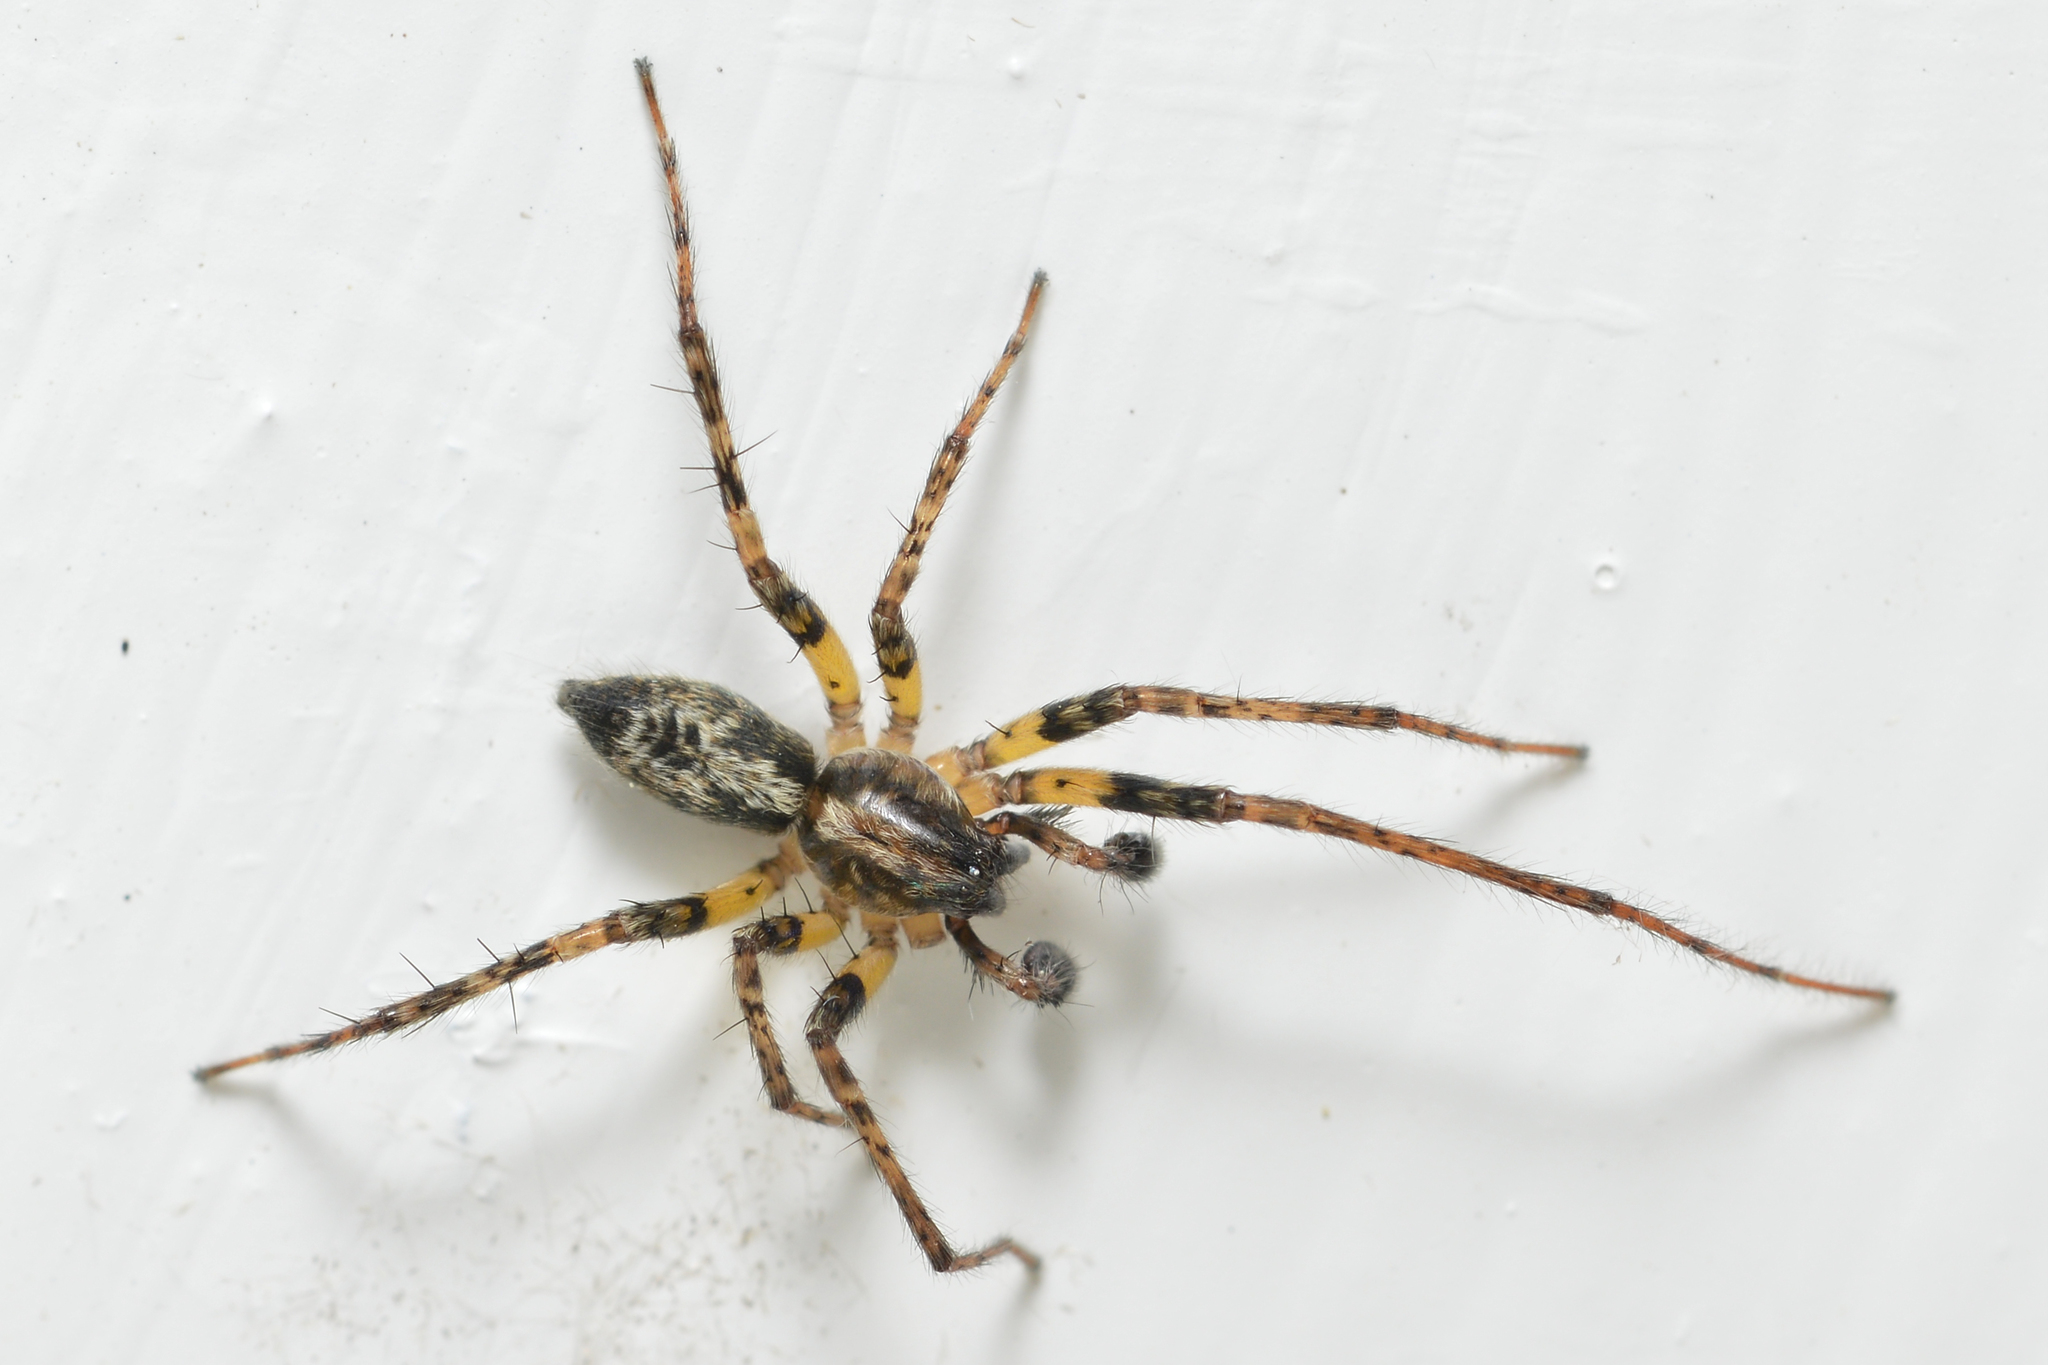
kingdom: Animalia
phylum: Arthropoda
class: Arachnida
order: Araneae
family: Anyphaenidae
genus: Anyphaena
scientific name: Anyphaena accentuata
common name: Buzzing spider
